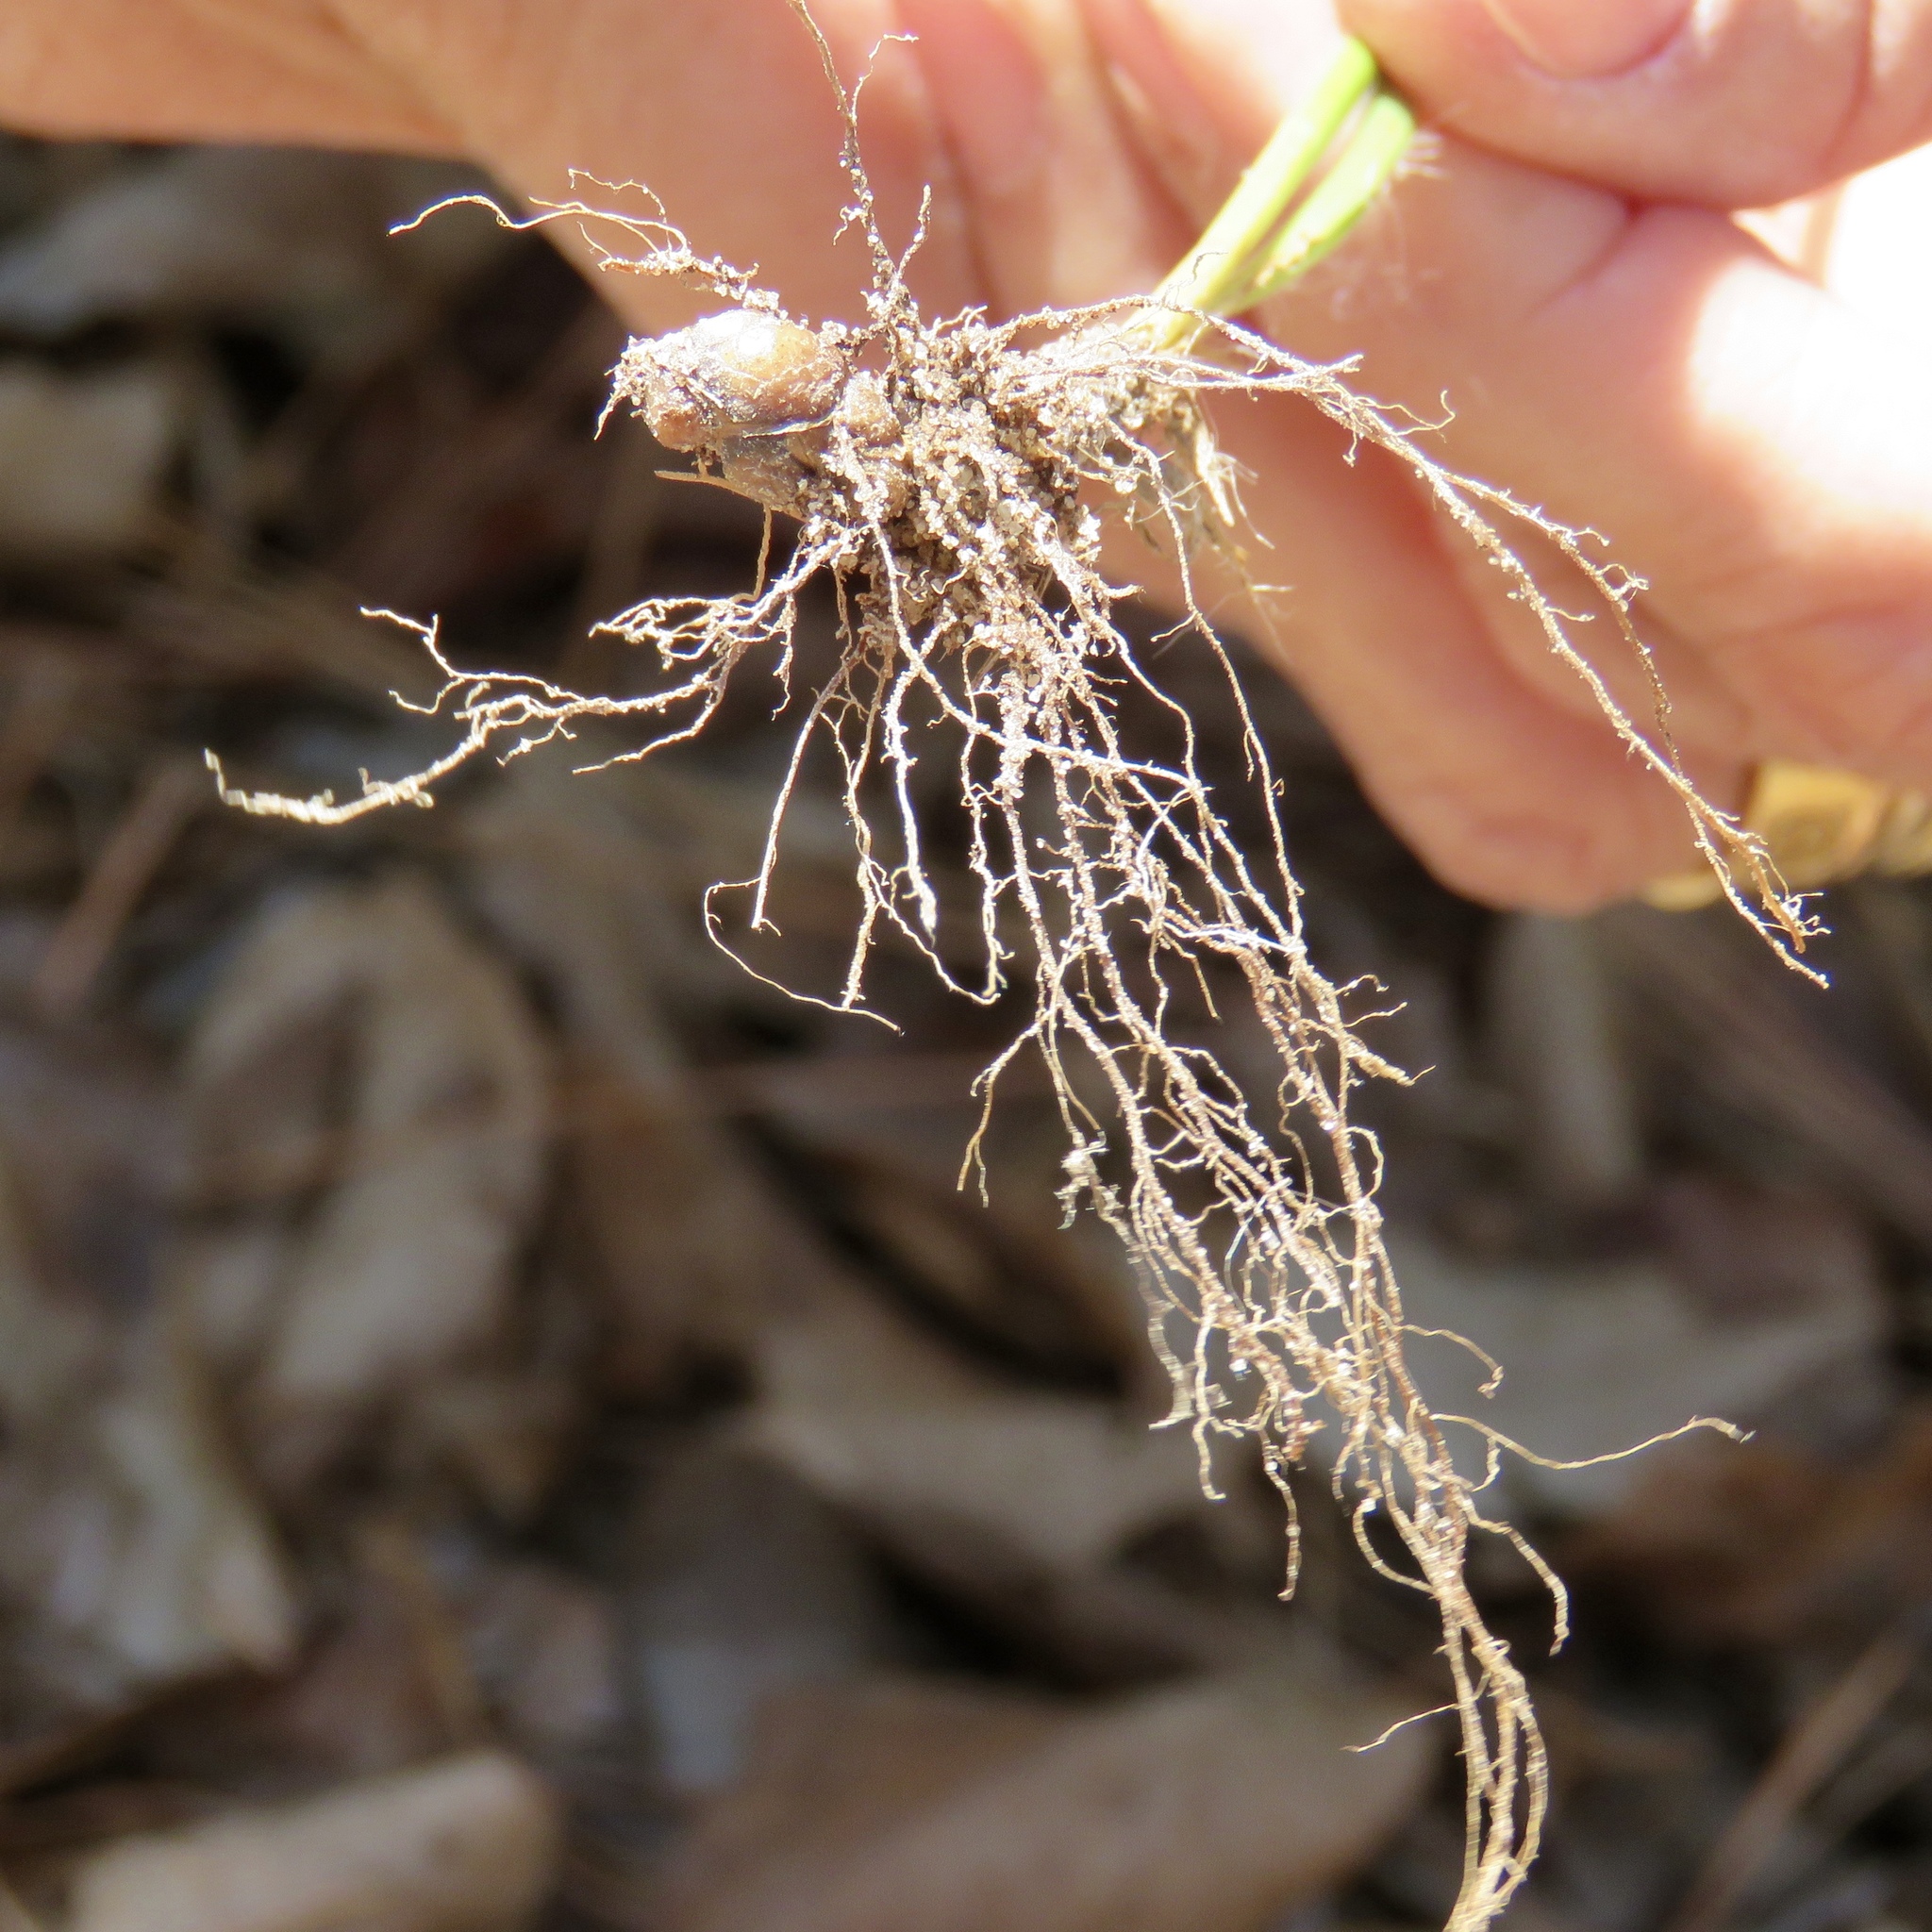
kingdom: Plantae
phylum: Tracheophyta
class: Liliopsida
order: Poales
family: Juncaceae
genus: Luzula
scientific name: Luzula bulbosa
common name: Bulbous woodrush
